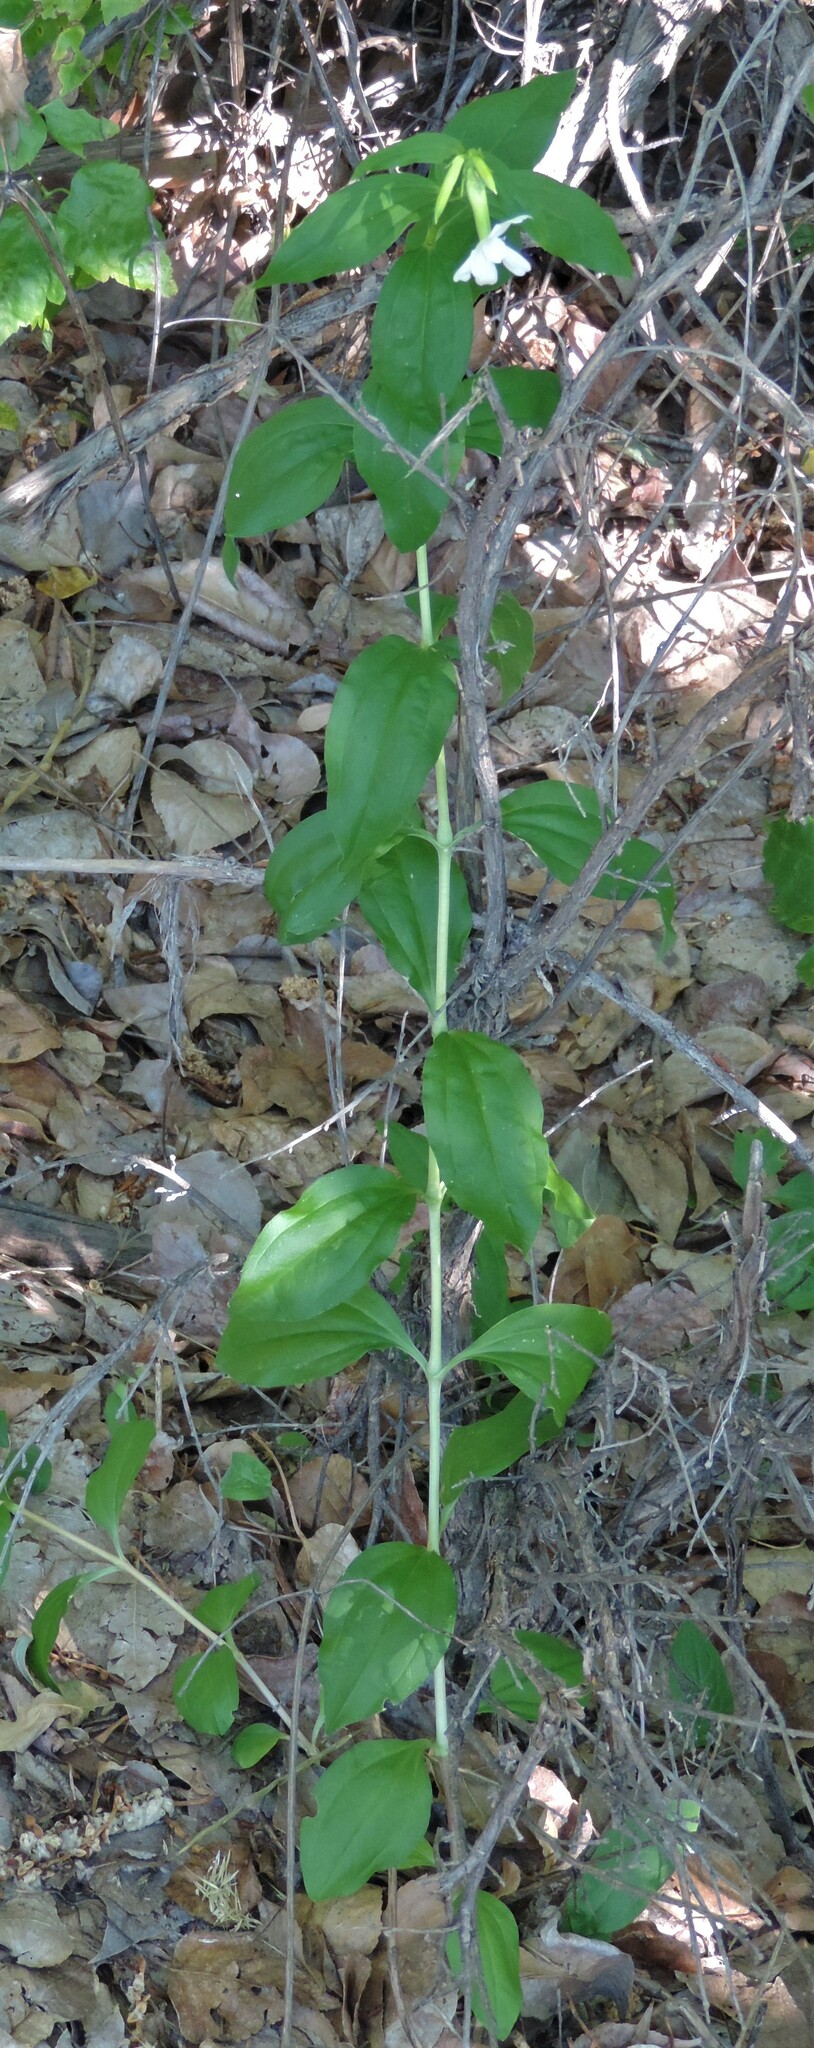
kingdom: Plantae
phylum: Tracheophyta
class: Magnoliopsida
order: Caryophyllales
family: Caryophyllaceae
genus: Saponaria
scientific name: Saponaria officinalis
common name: Soapwort
